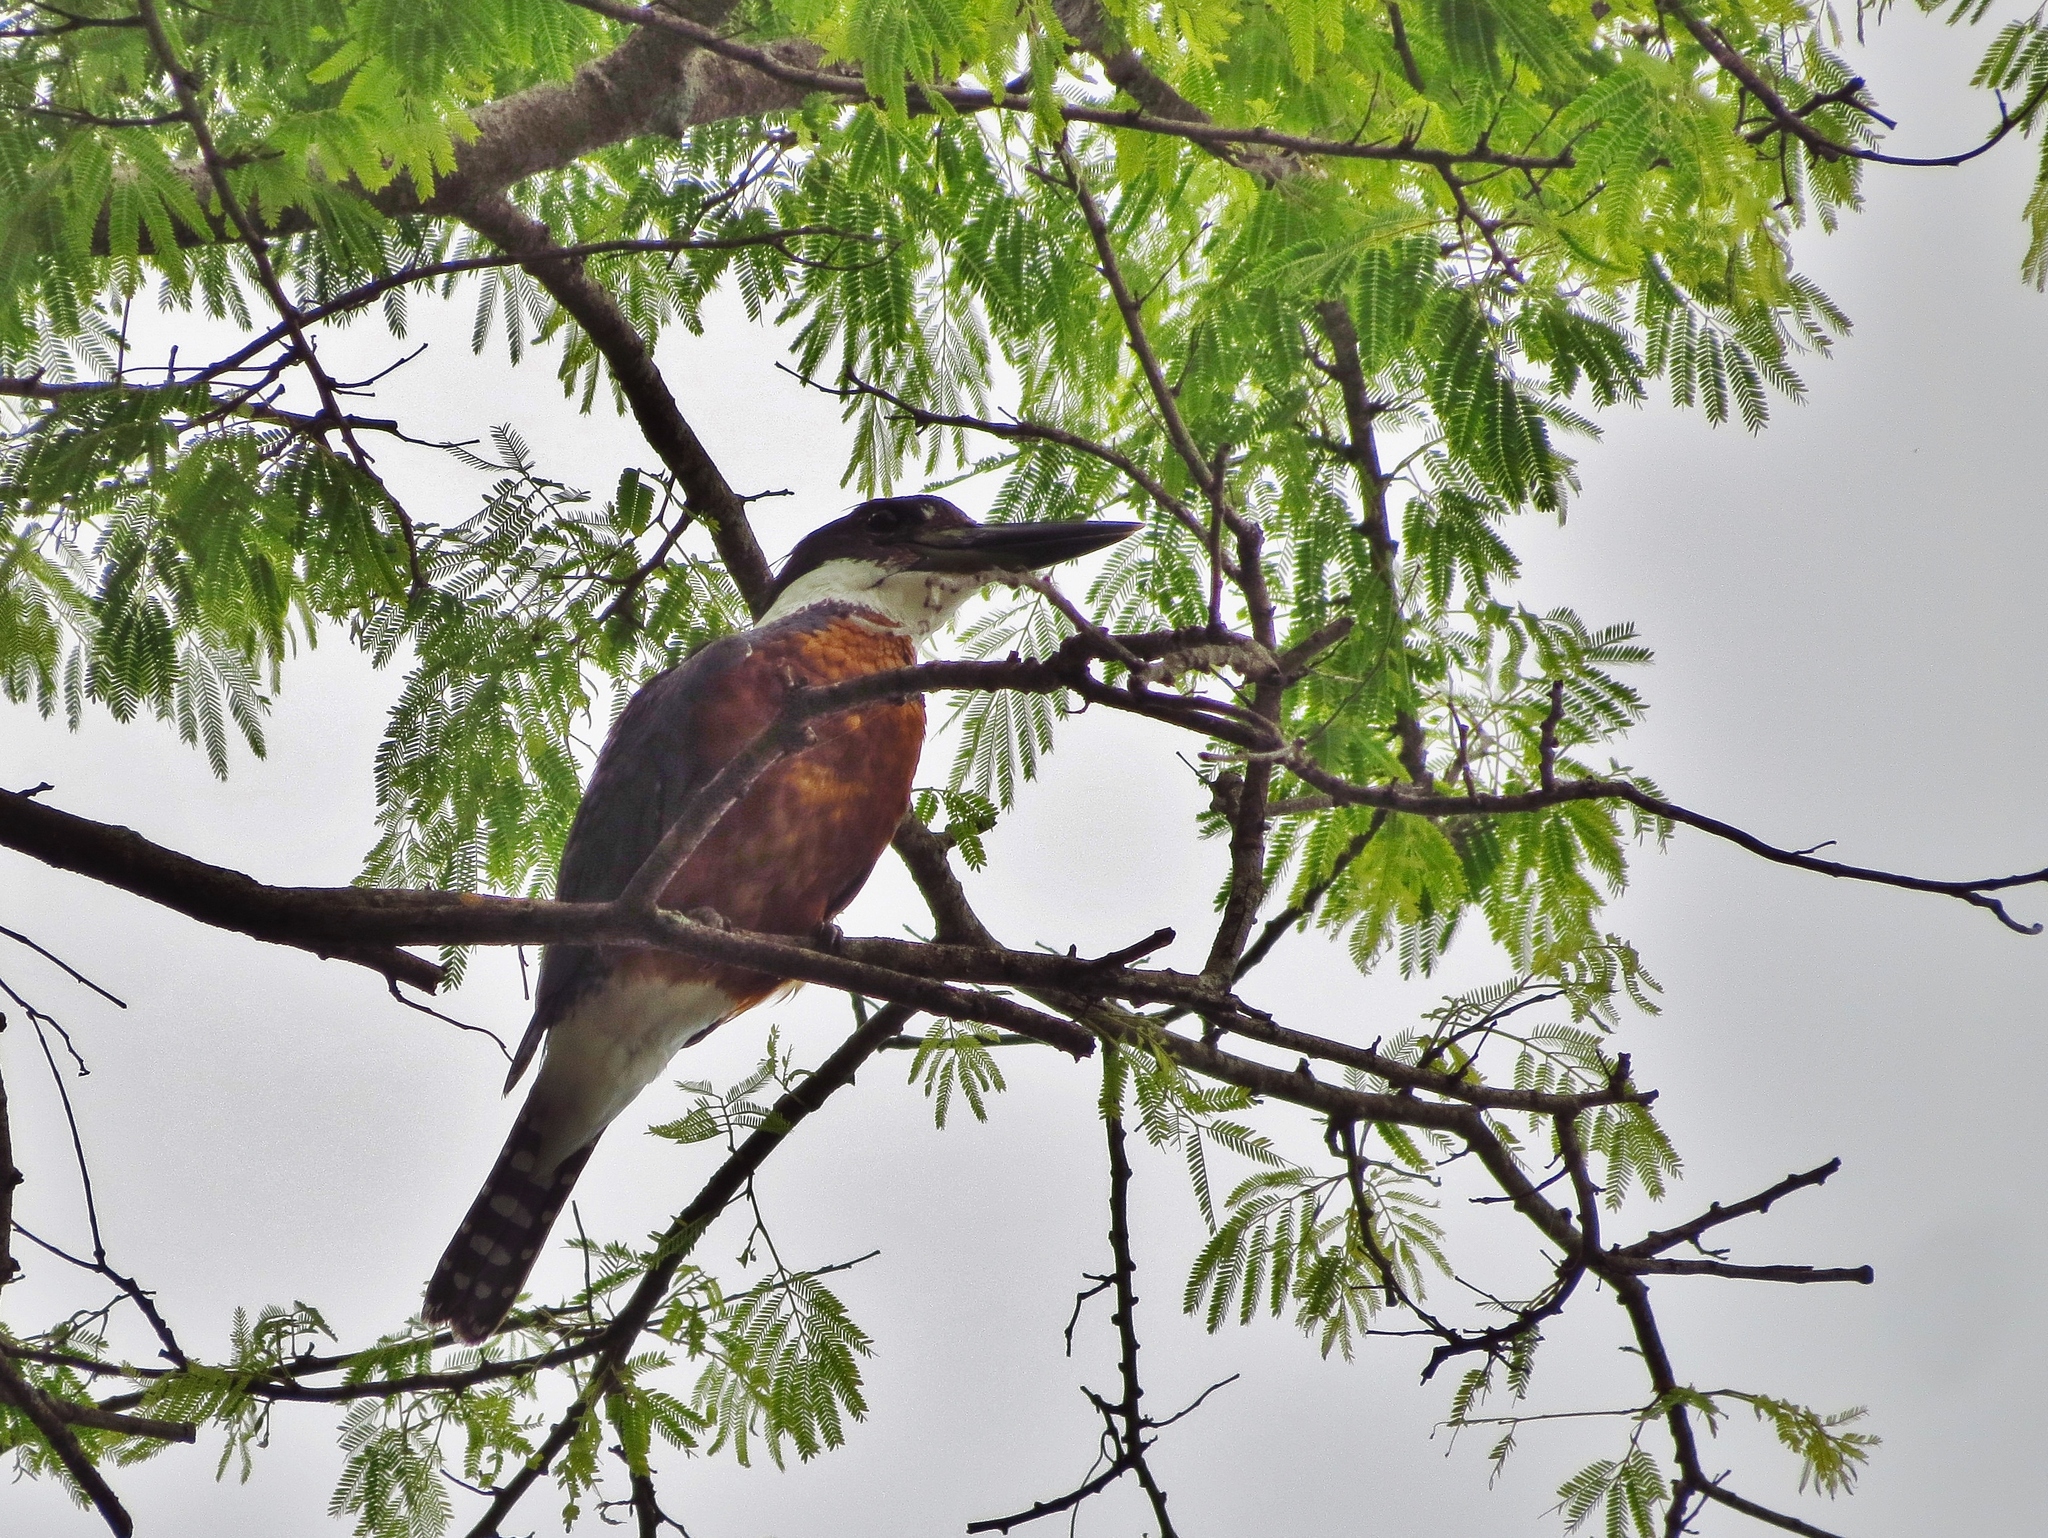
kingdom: Animalia
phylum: Chordata
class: Aves
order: Coraciiformes
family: Alcedinidae
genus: Megaceryle
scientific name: Megaceryle torquata
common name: Ringed kingfisher
